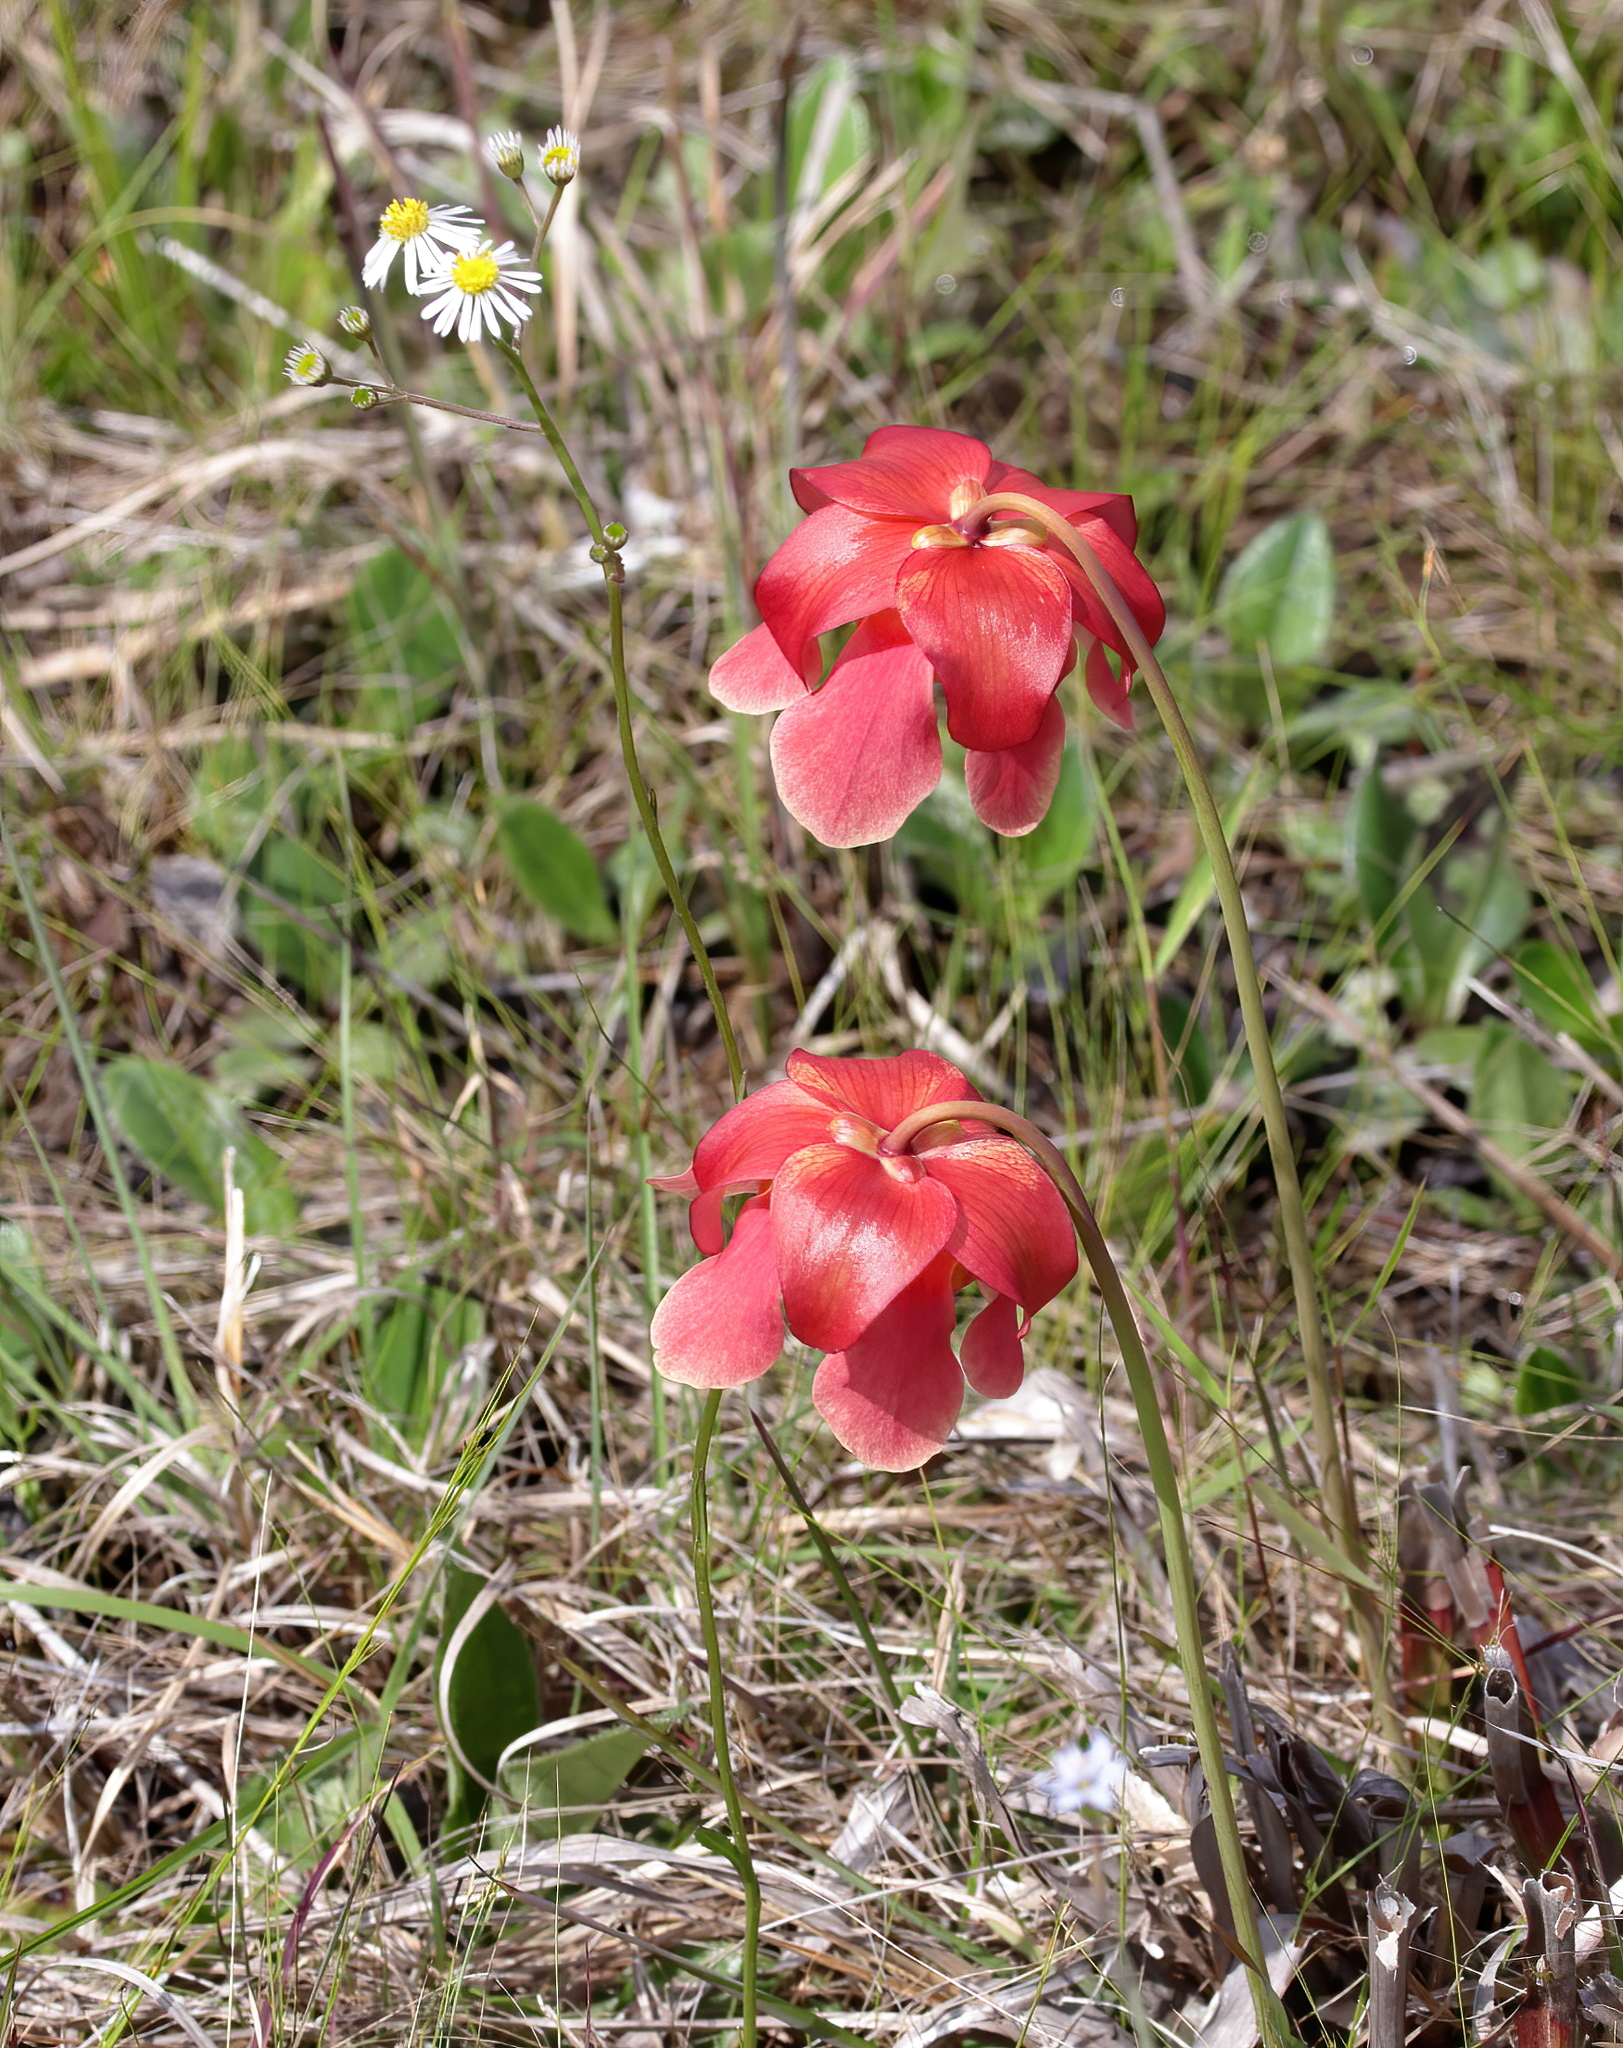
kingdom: Plantae
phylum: Tracheophyta
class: Magnoliopsida
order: Ericales
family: Sarraceniaceae
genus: Sarracenia
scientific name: Sarracenia areolata
